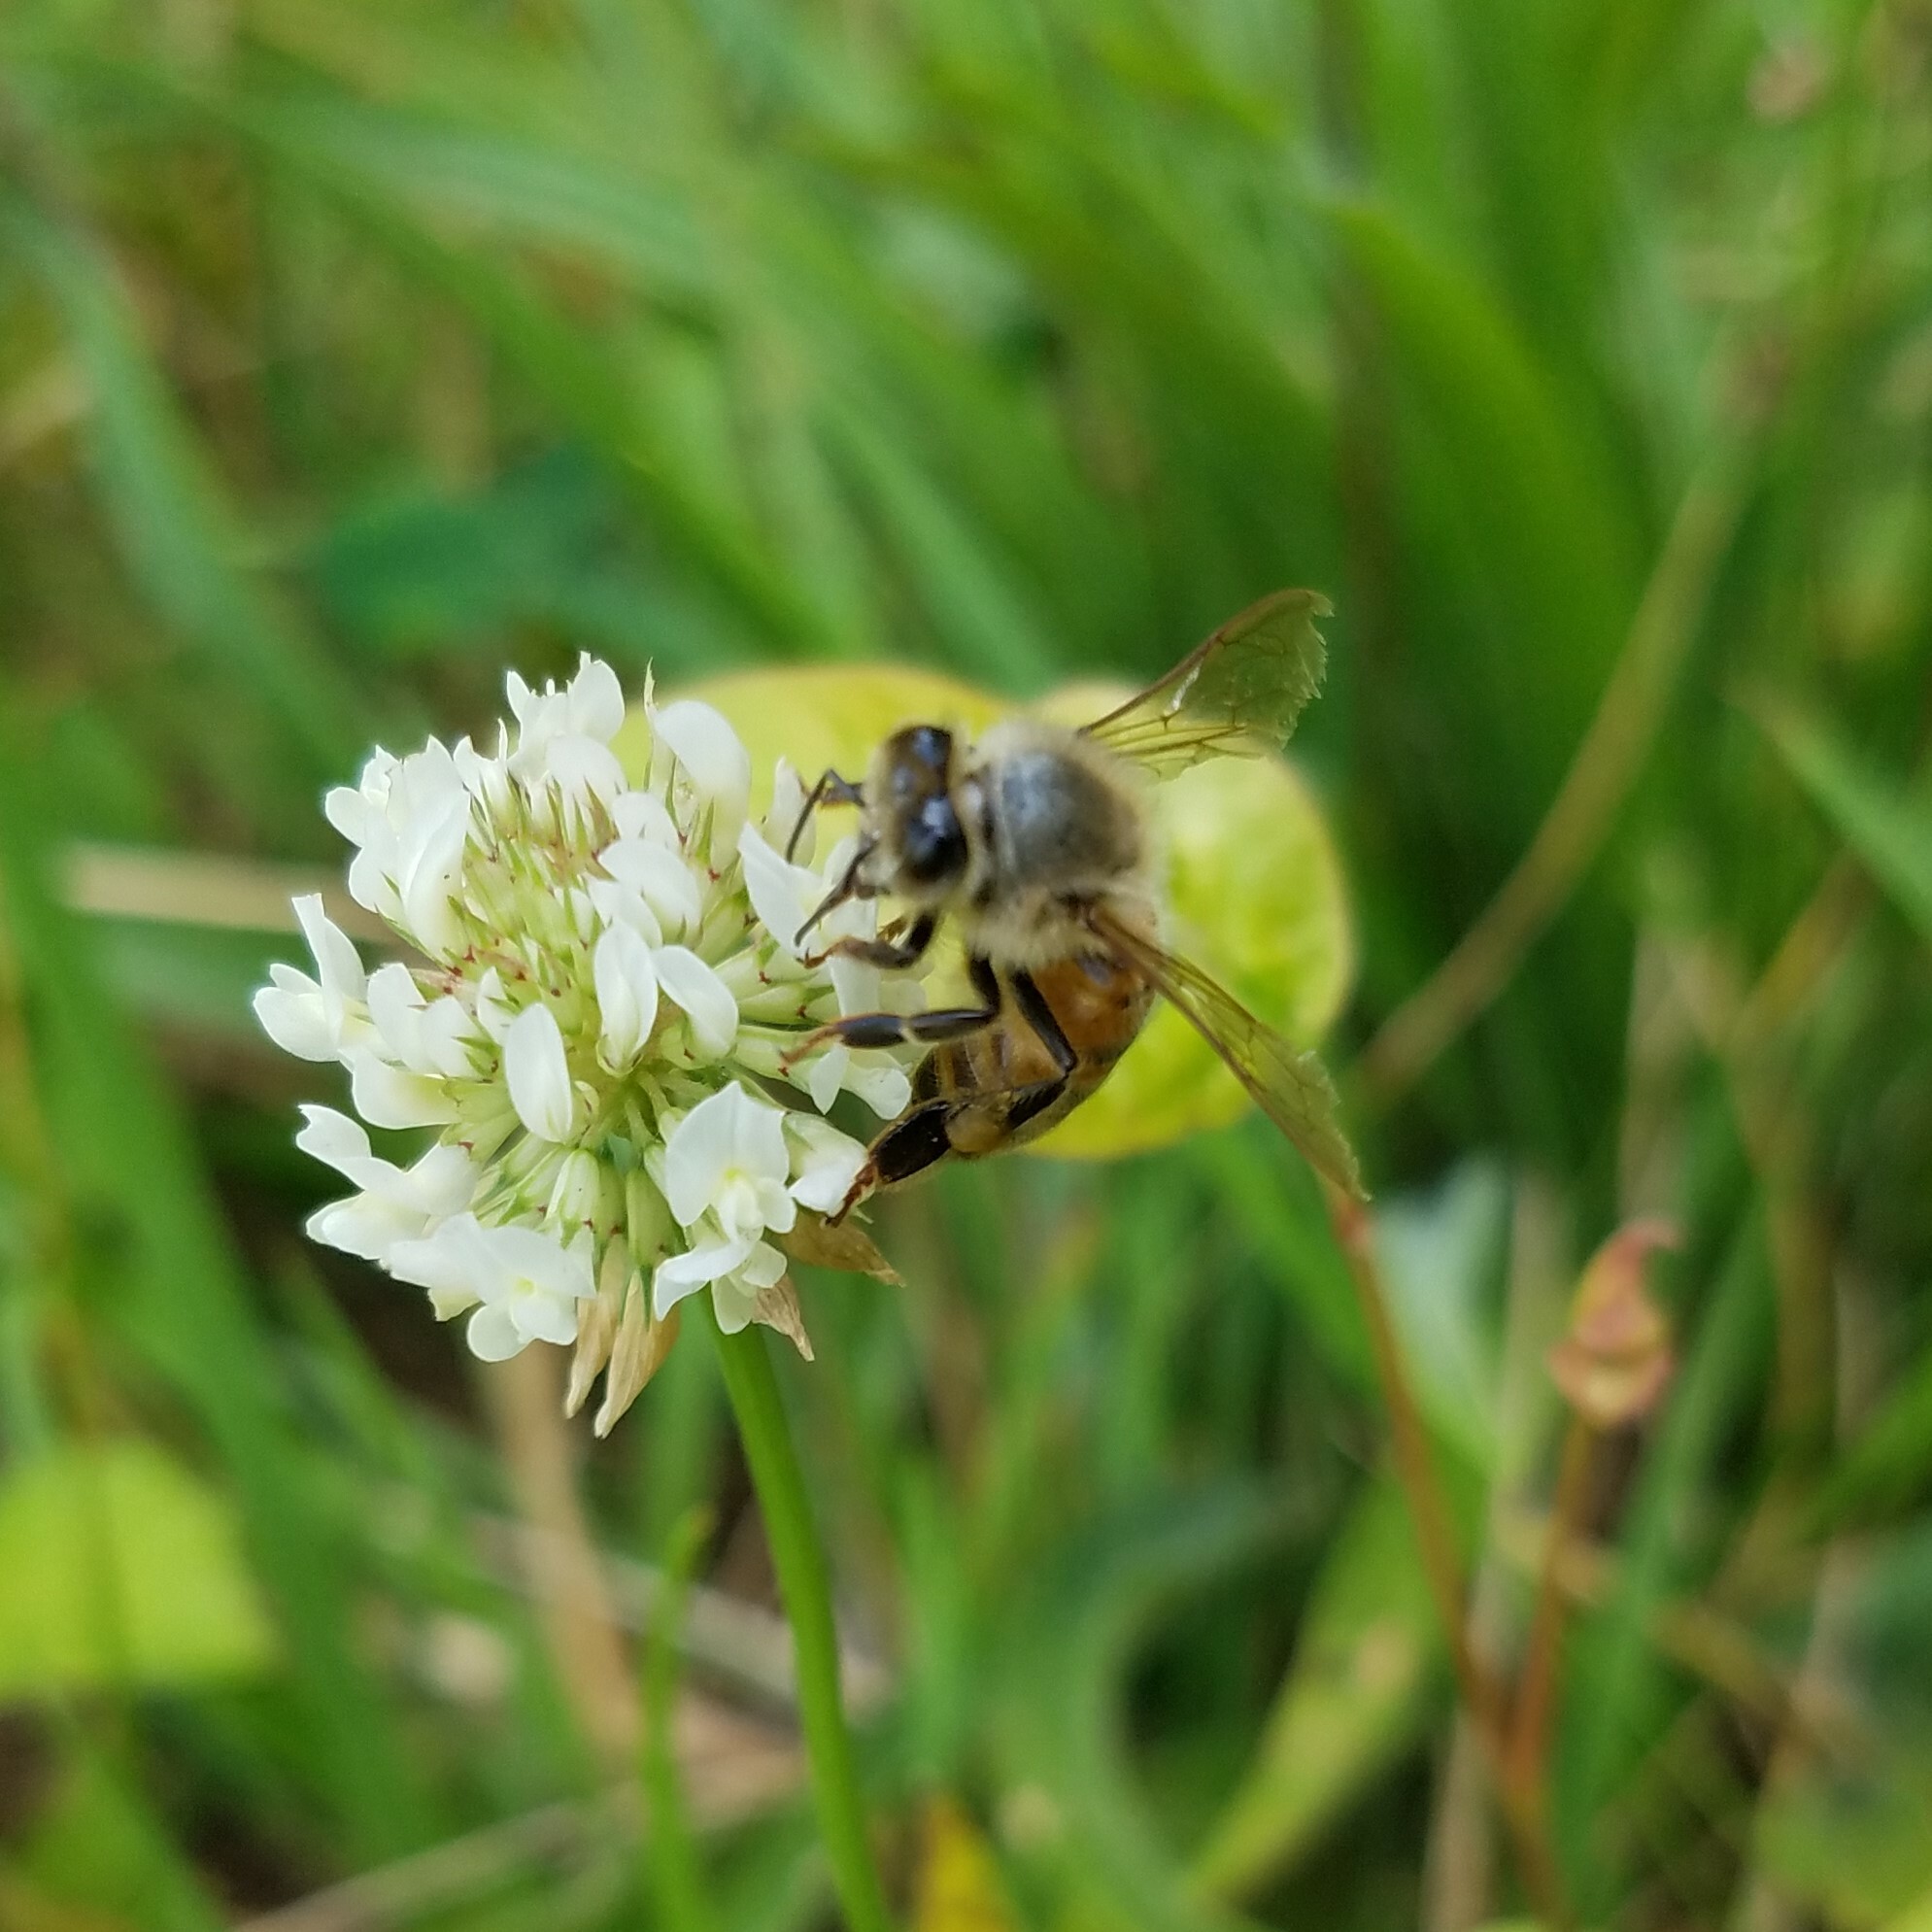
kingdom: Animalia
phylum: Arthropoda
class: Insecta
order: Hymenoptera
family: Apidae
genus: Apis
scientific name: Apis mellifera
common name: Honey bee
